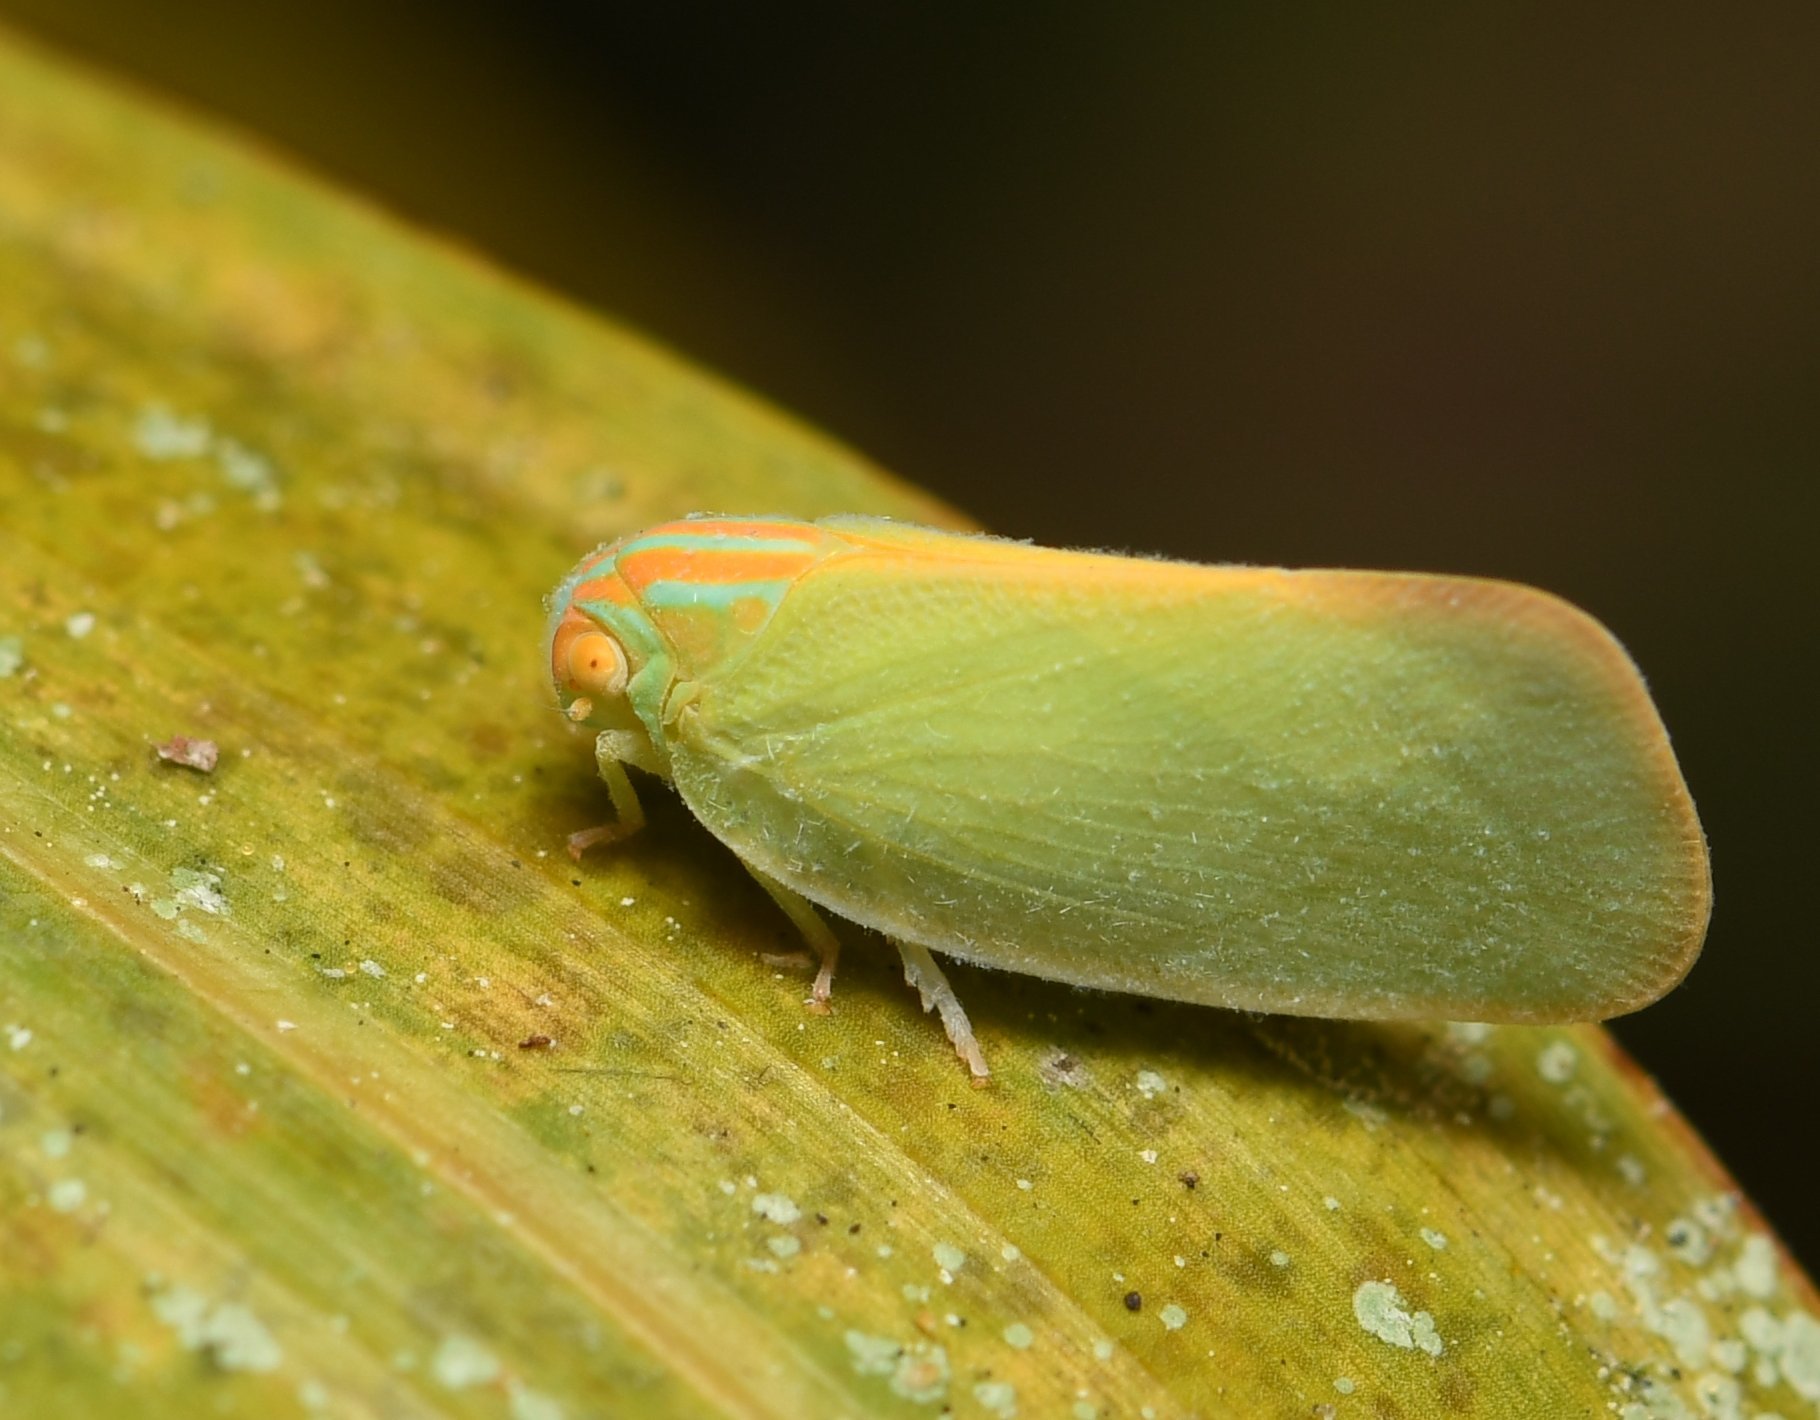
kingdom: Animalia
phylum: Arthropoda
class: Insecta
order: Hemiptera
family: Flatidae
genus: Ormenaria
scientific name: Ormenaria rufifascia
